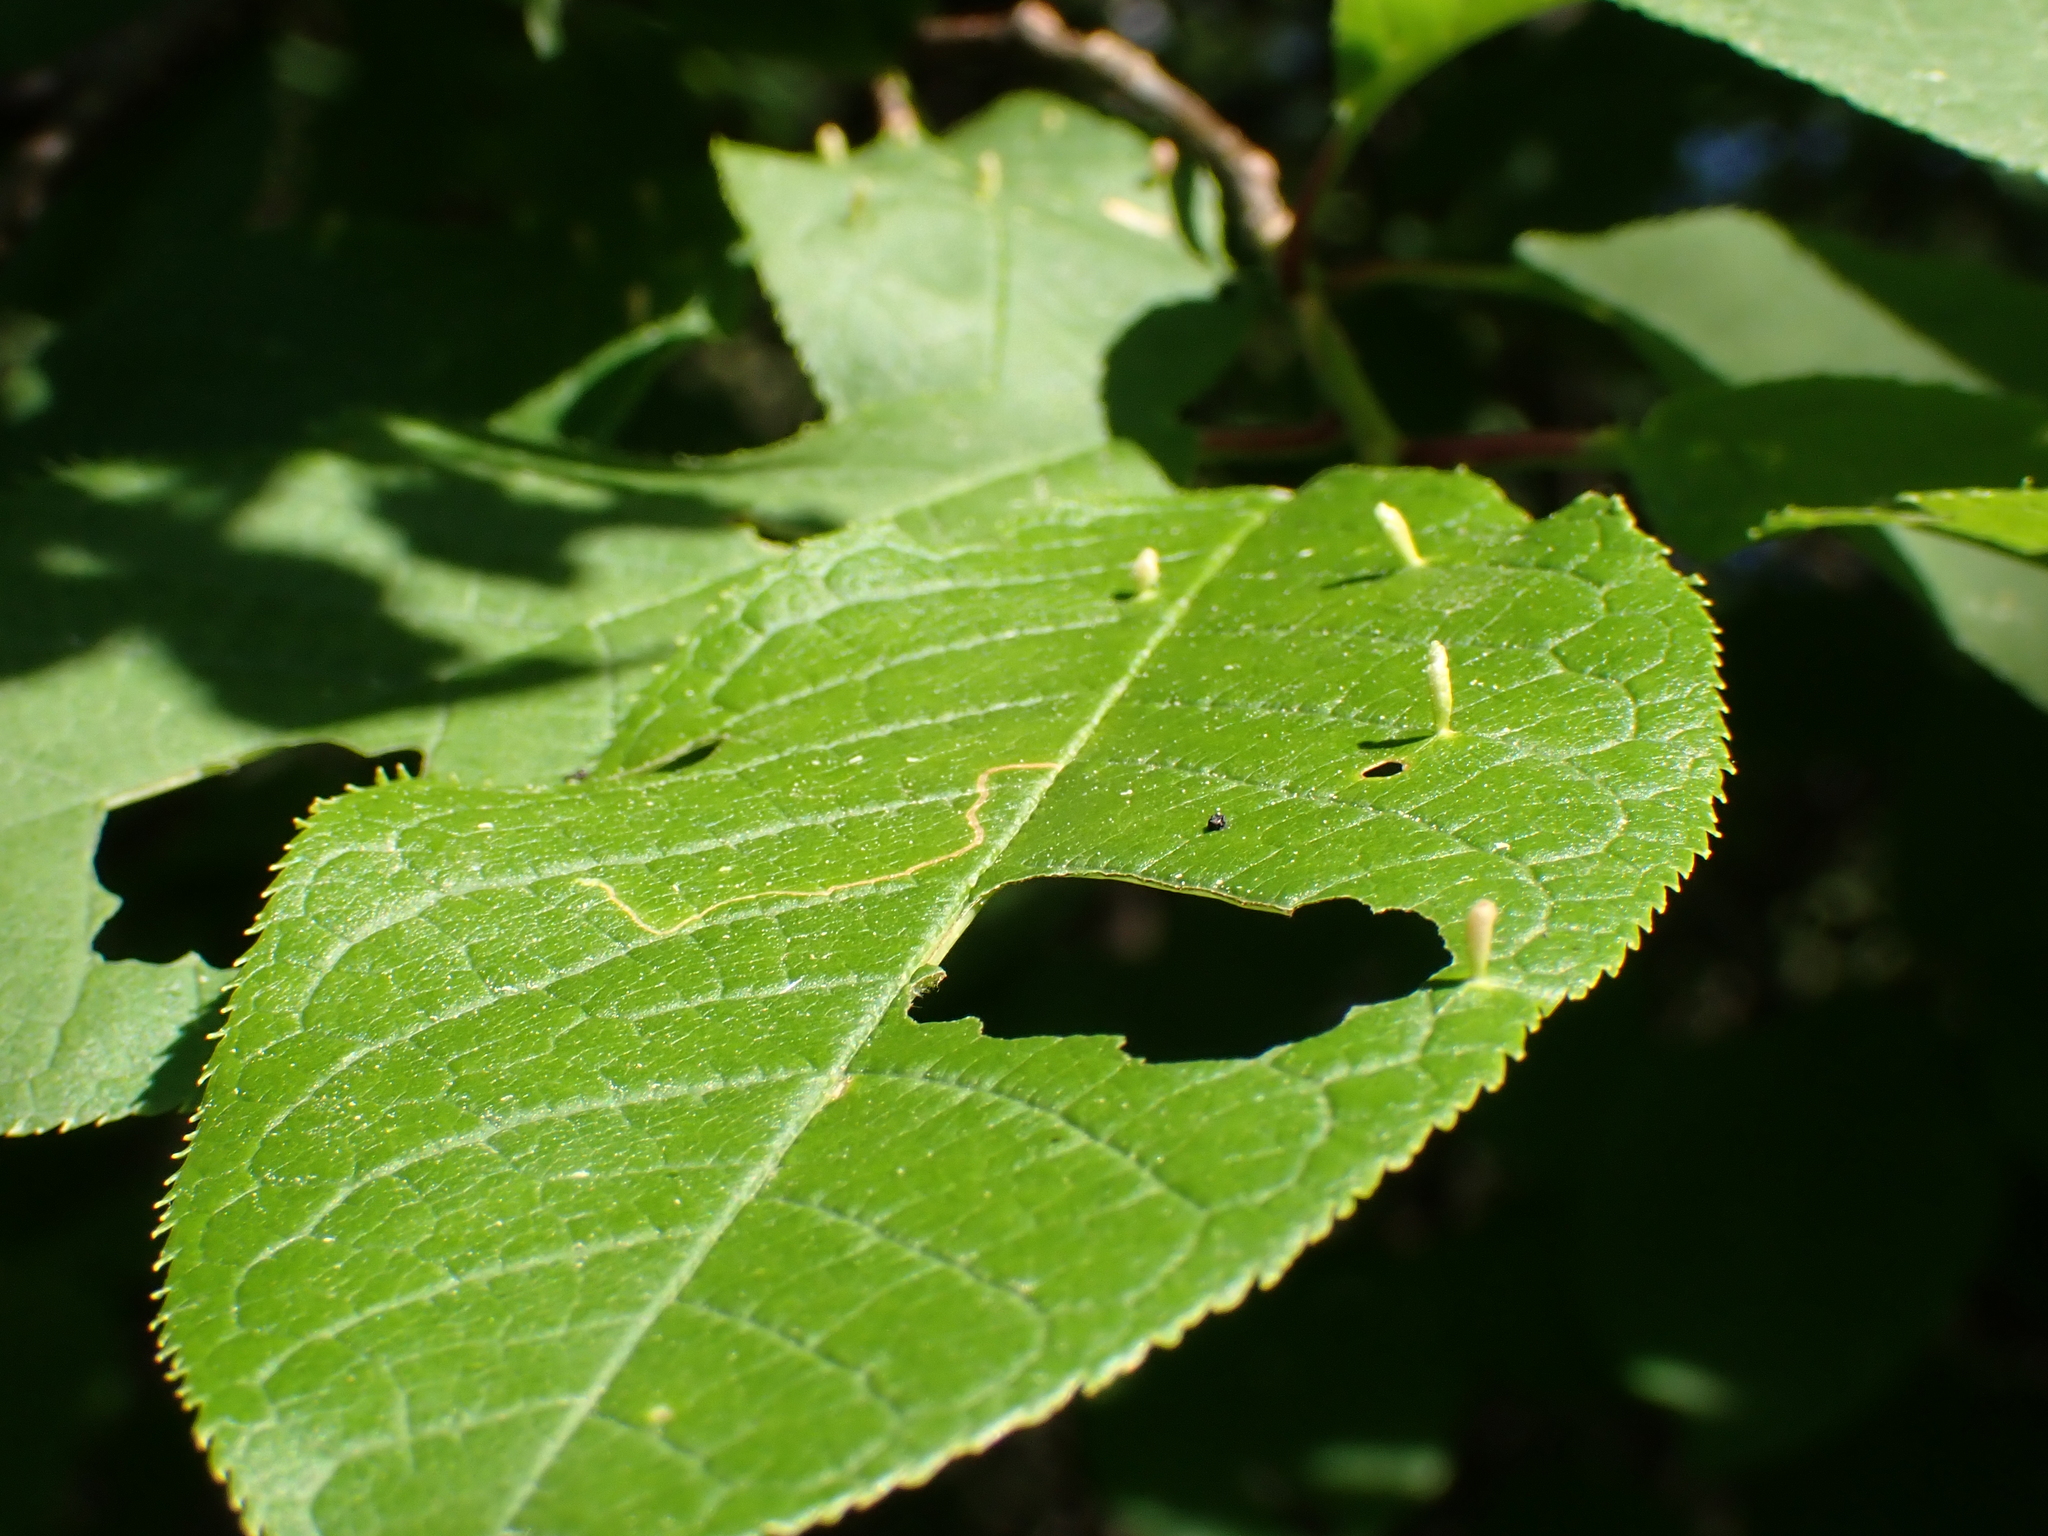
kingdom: Animalia
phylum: Arthropoda
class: Arachnida
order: Trombidiformes
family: Eriophyidae
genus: Phyllocoptes
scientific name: Phyllocoptes eupadi
